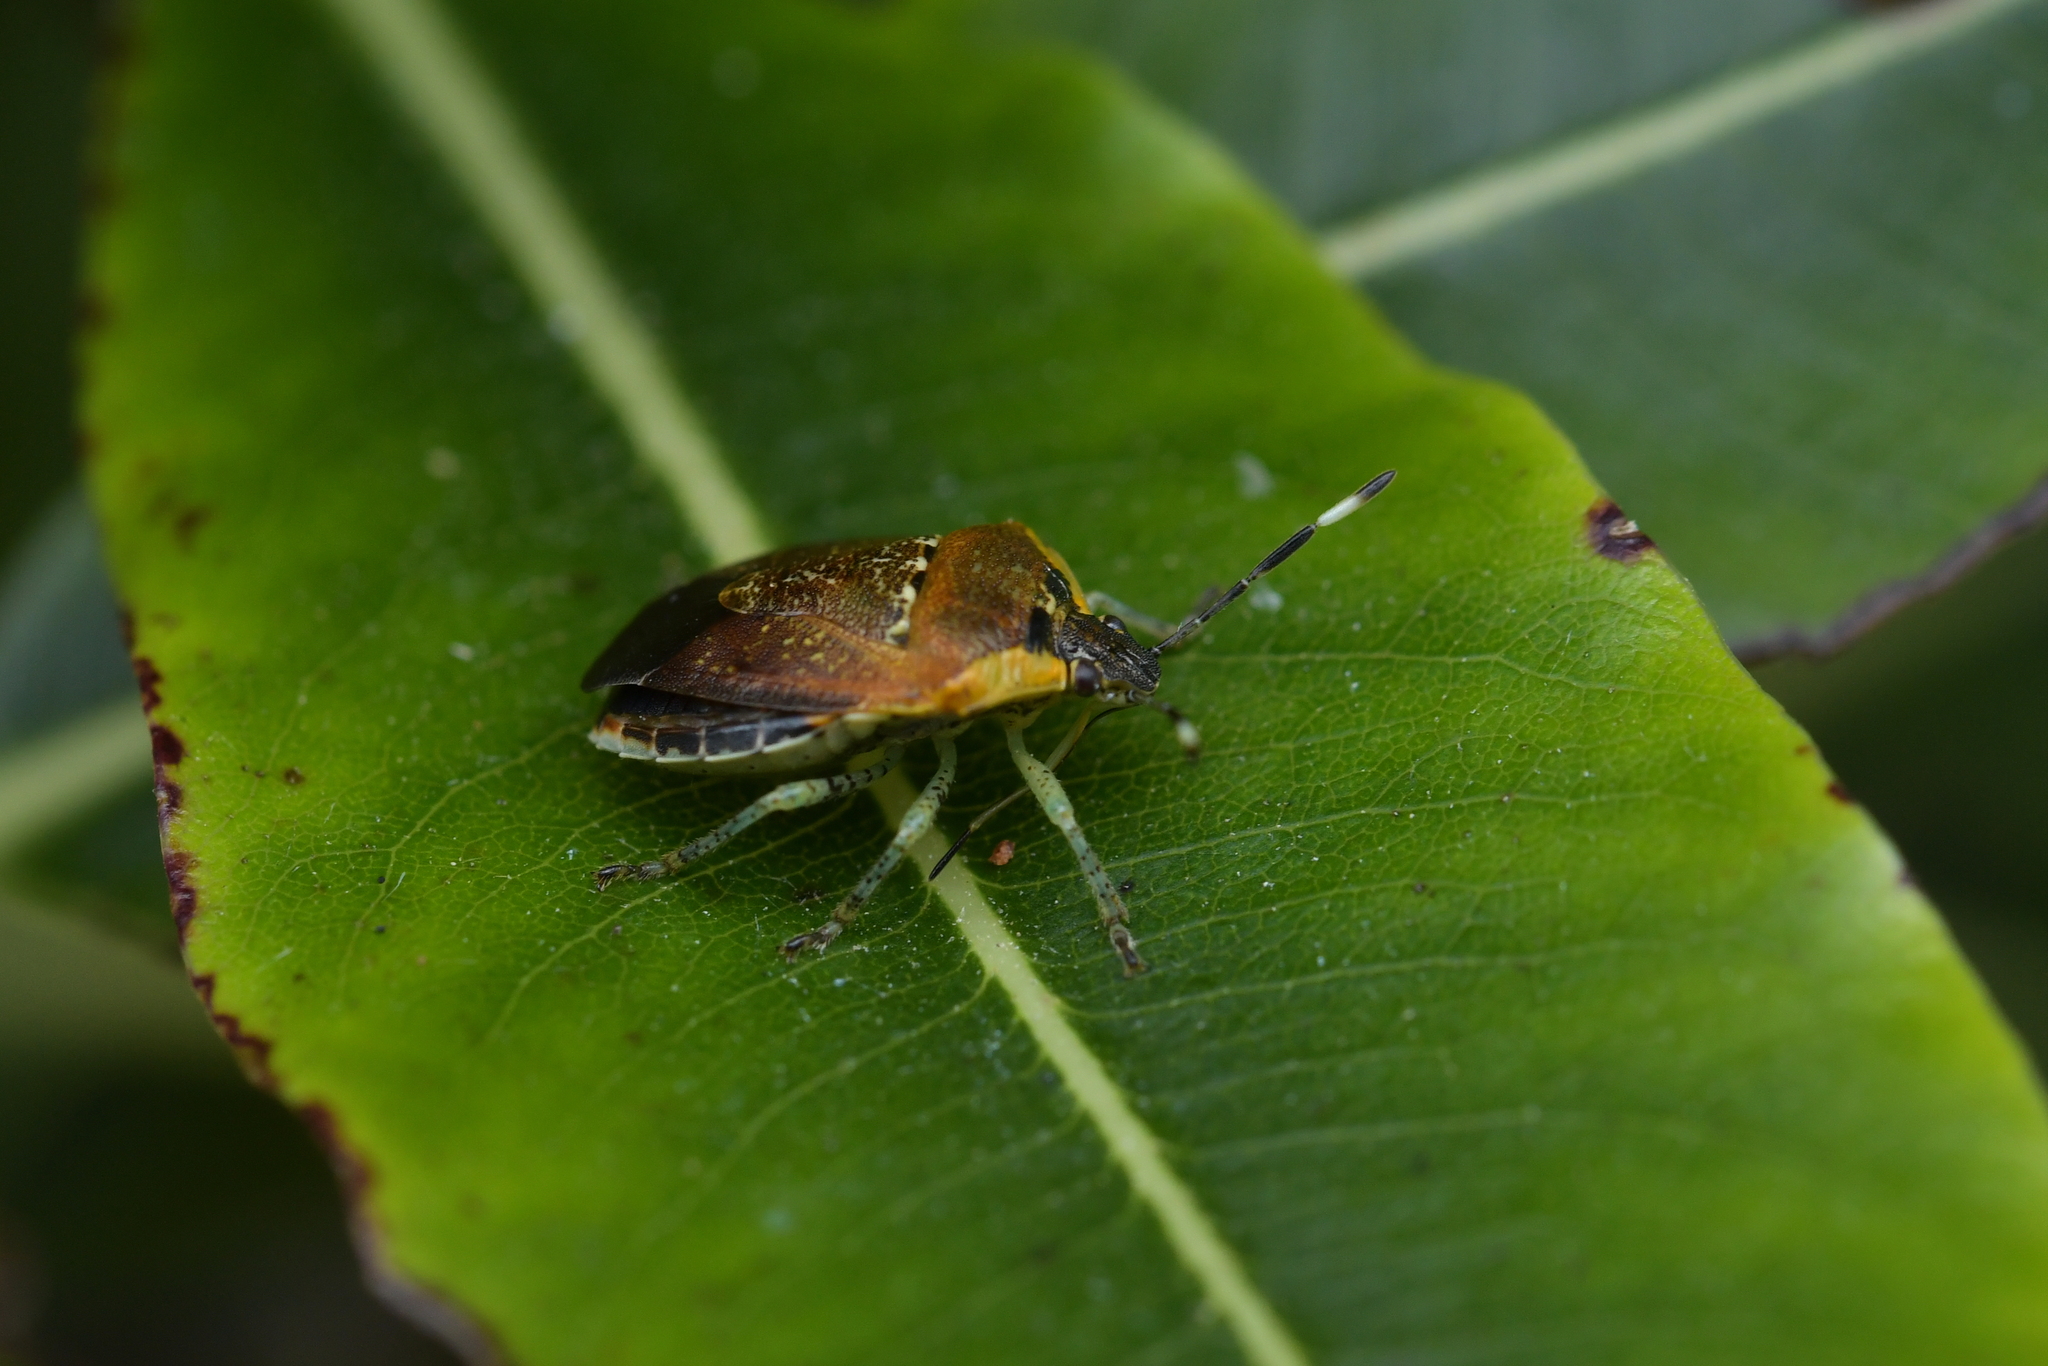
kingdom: Animalia
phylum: Arthropoda
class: Insecta
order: Hemiptera
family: Pentatomidae
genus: Monteithiella
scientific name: Monteithiella
